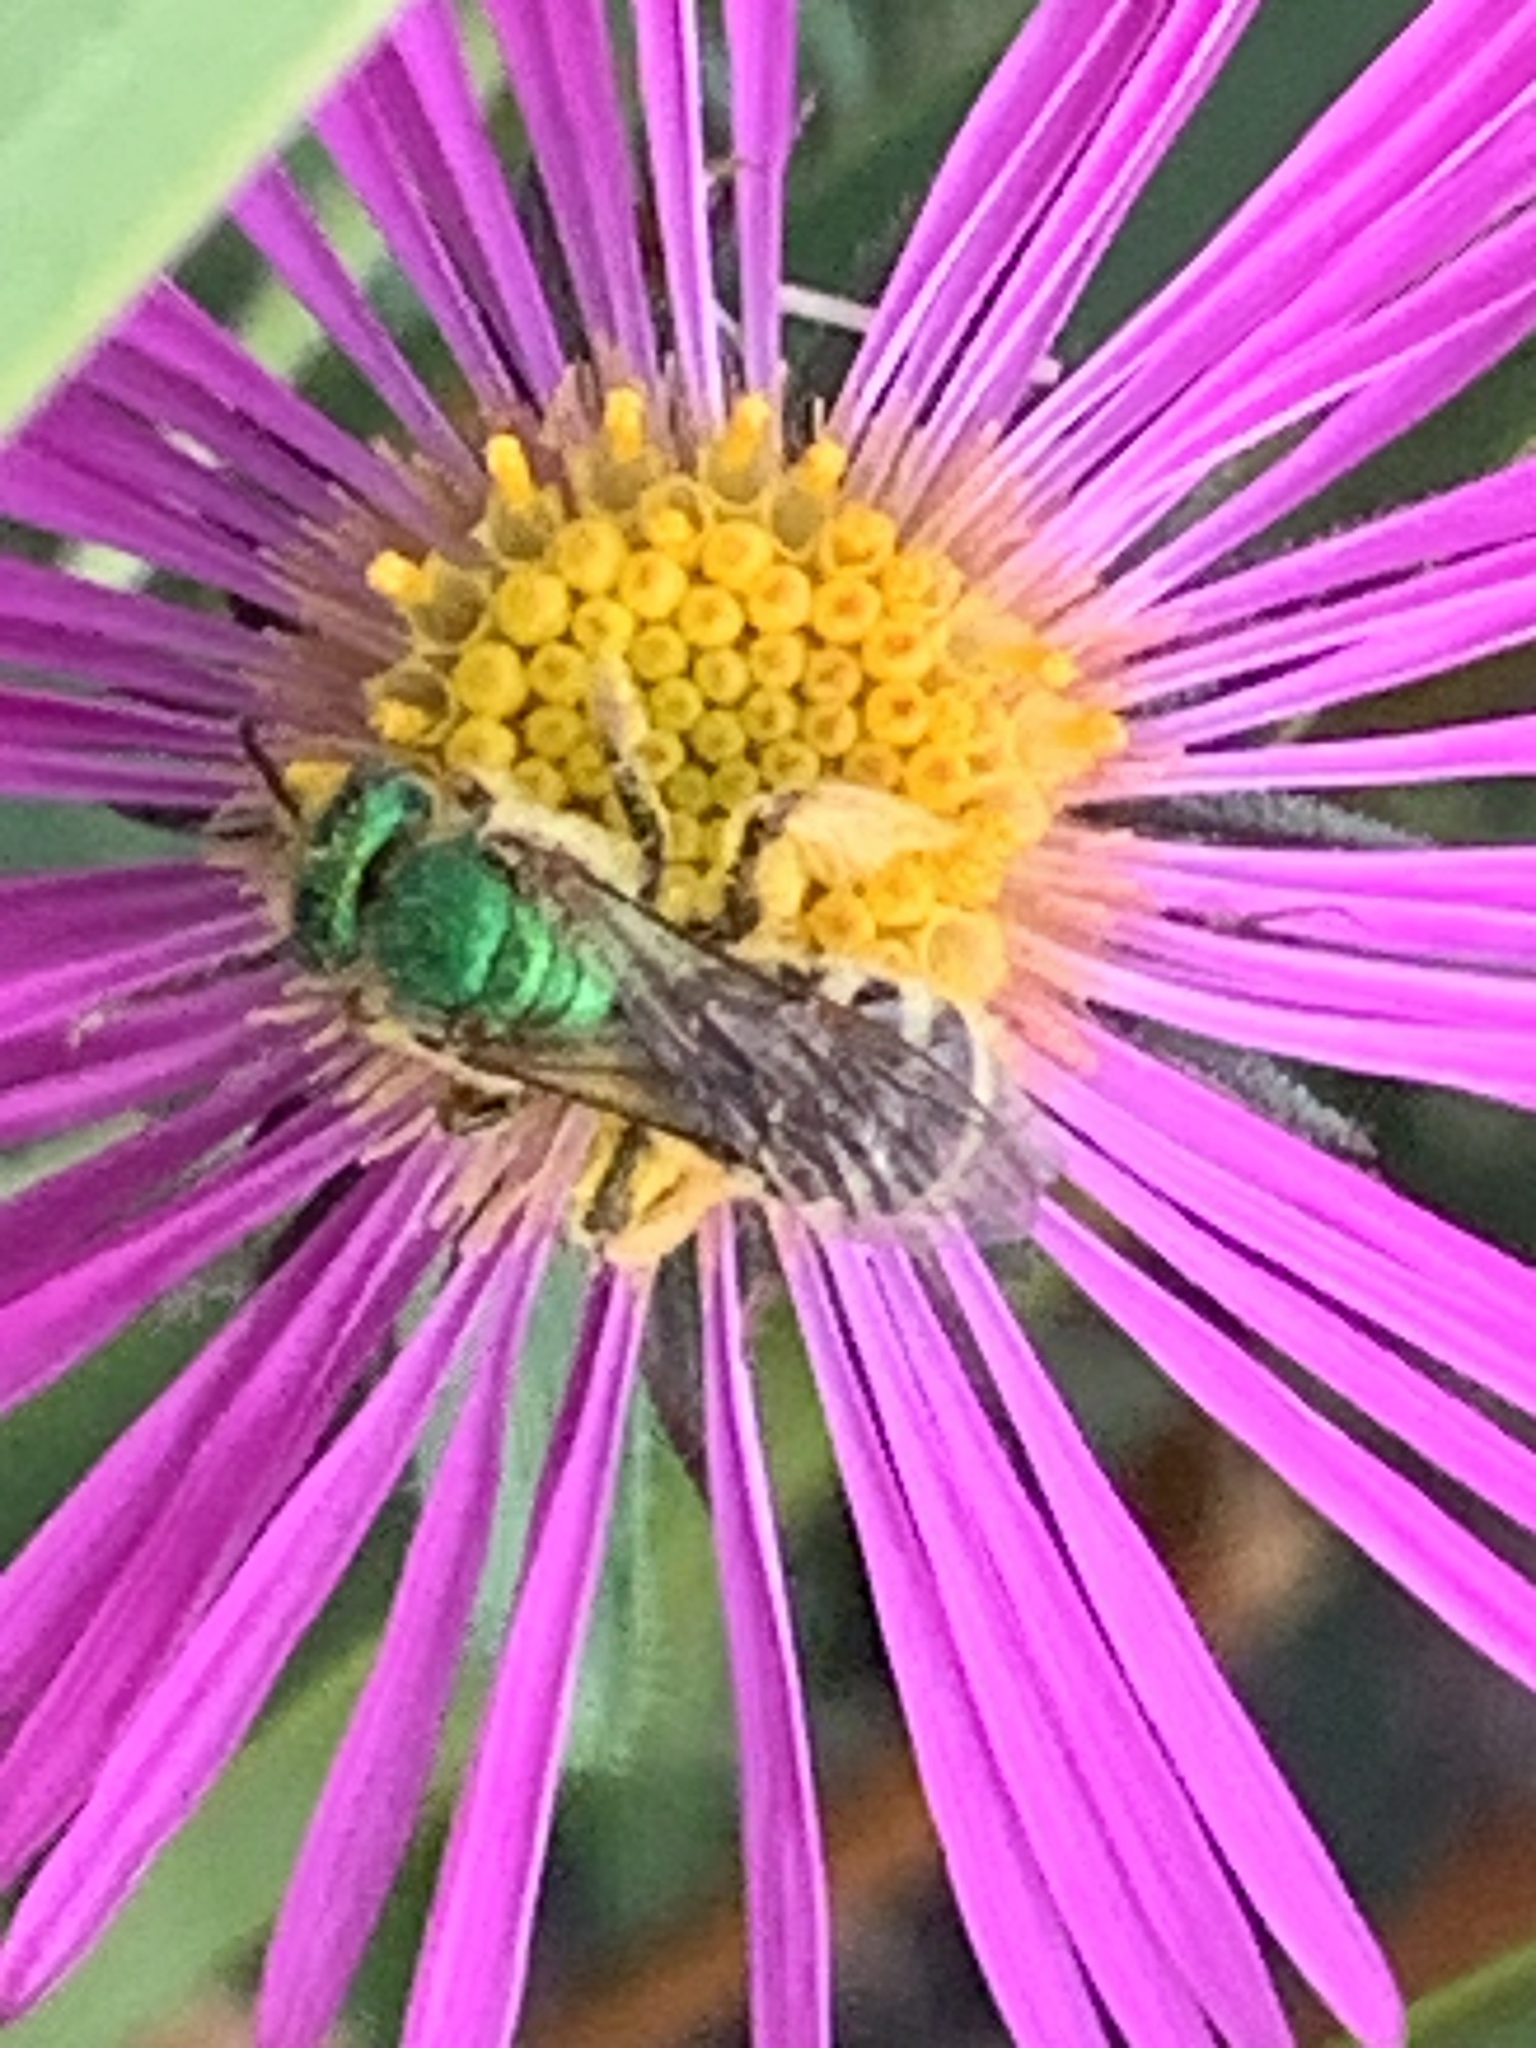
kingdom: Animalia
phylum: Arthropoda
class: Insecta
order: Hymenoptera
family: Halictidae
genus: Agapostemon
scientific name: Agapostemon virescens
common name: Bicolored striped sweat bee
